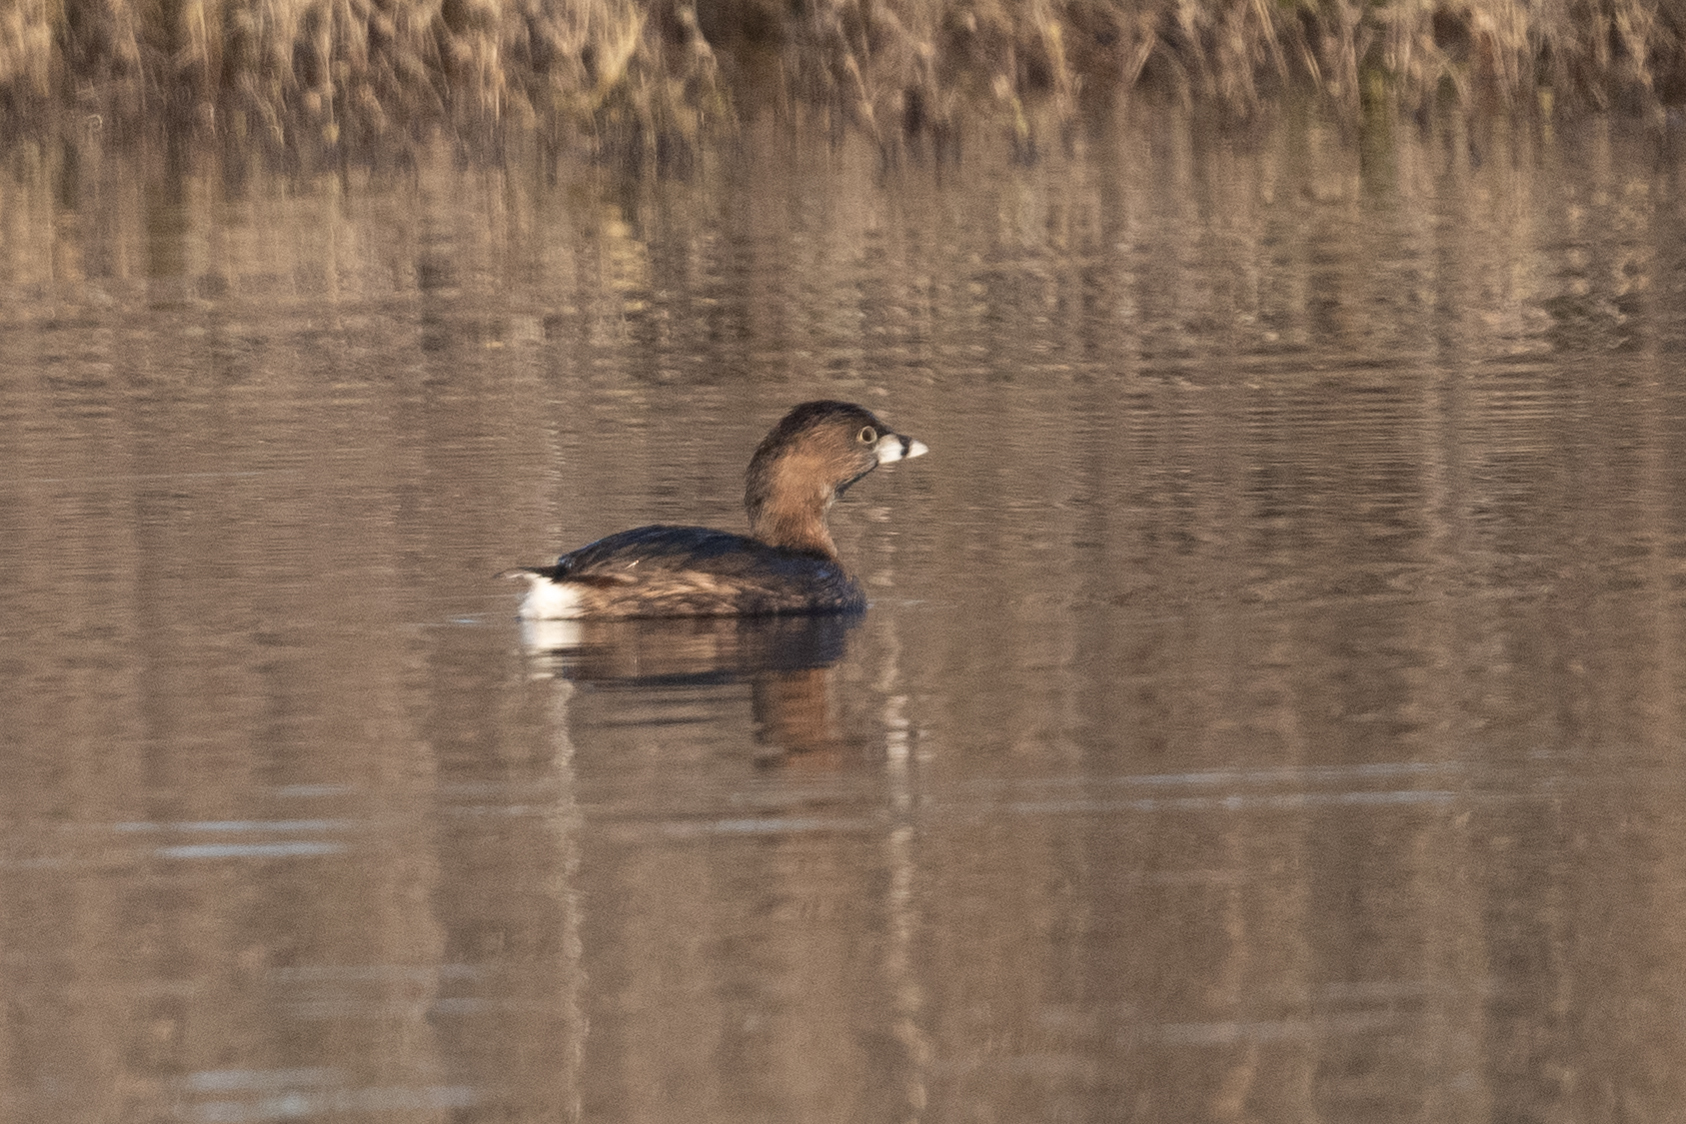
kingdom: Animalia
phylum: Chordata
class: Aves
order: Podicipediformes
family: Podicipedidae
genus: Podilymbus
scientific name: Podilymbus podiceps
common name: Pied-billed grebe
